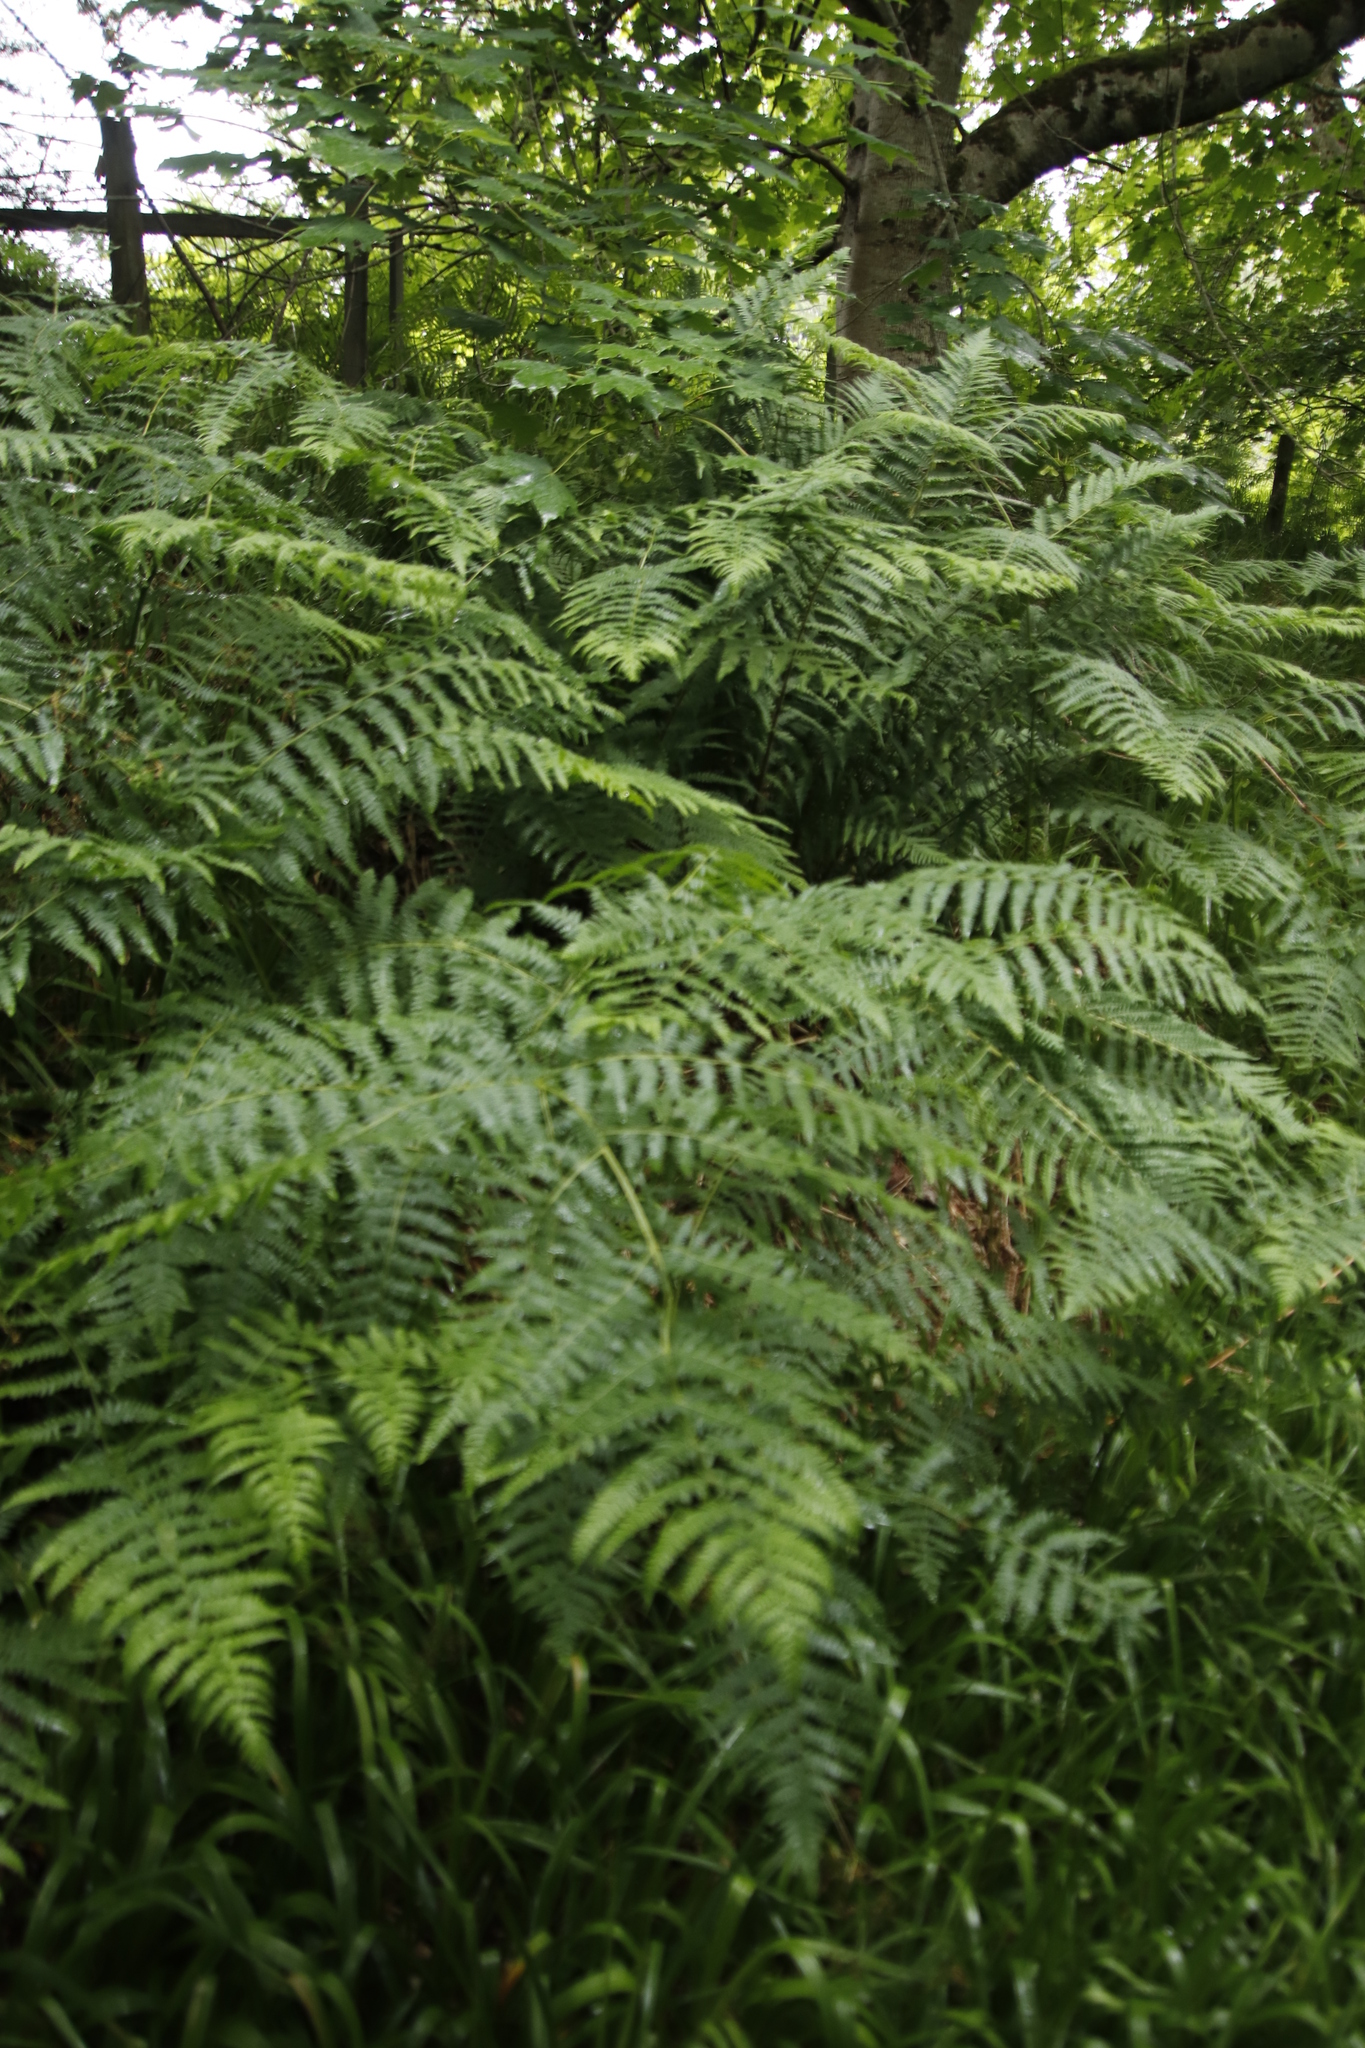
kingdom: Plantae
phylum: Tracheophyta
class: Polypodiopsida
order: Polypodiales
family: Dennstaedtiaceae
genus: Pteridium
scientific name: Pteridium aquilinum
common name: Bracken
